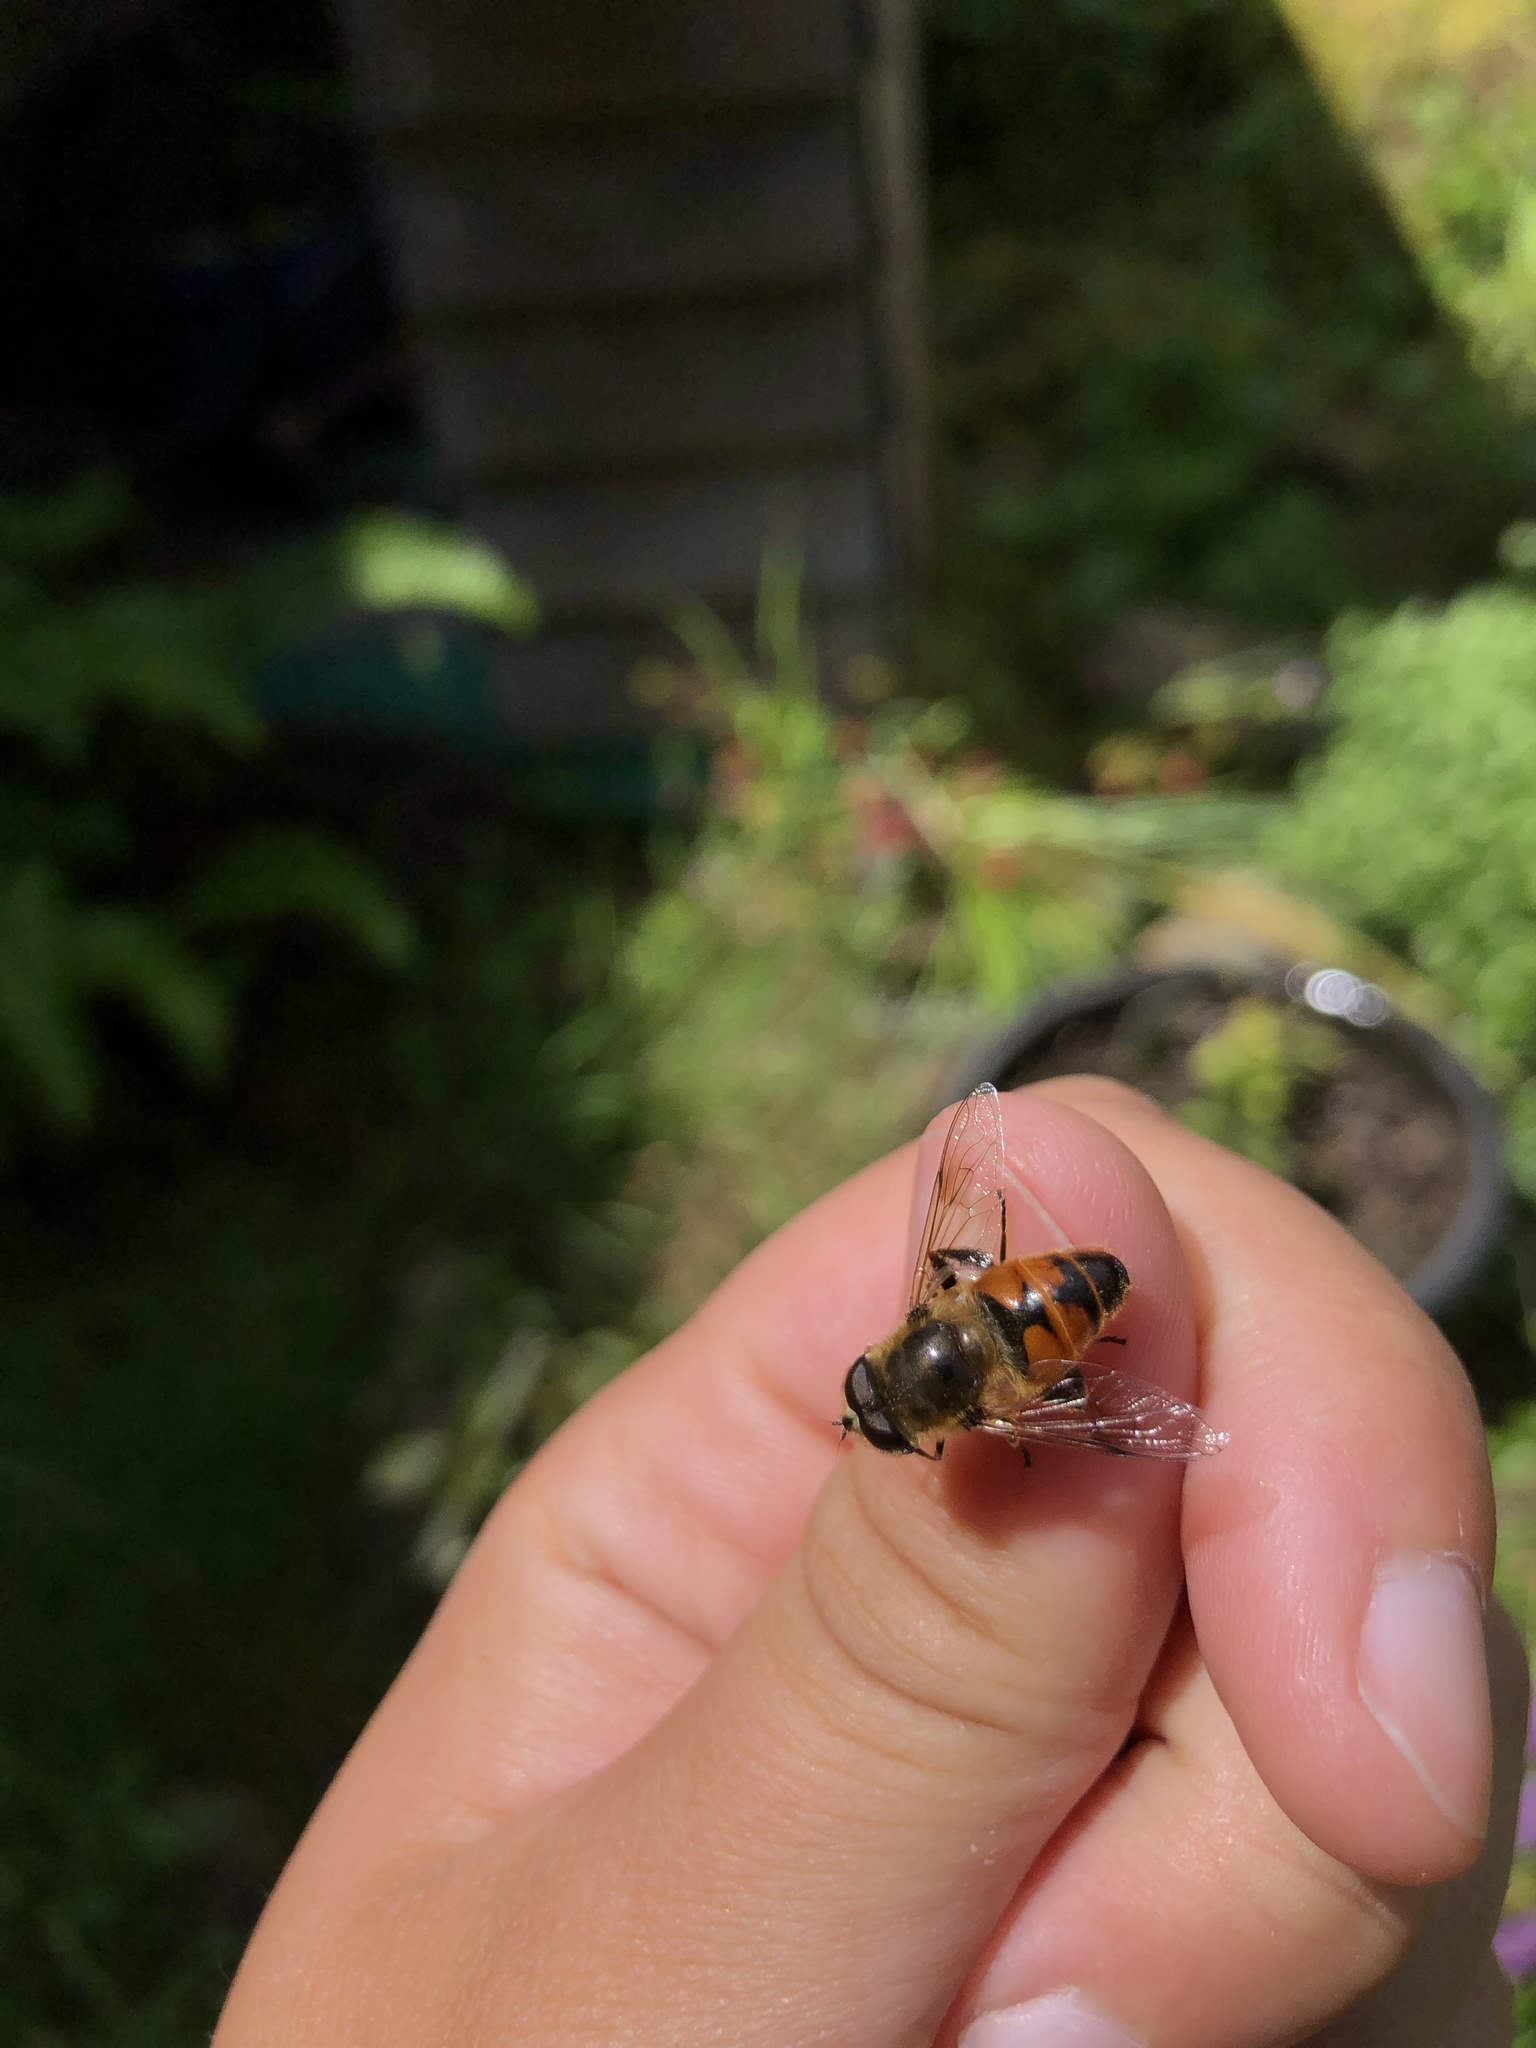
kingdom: Animalia
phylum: Arthropoda
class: Insecta
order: Diptera
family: Syrphidae
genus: Eristalis
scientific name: Eristalis tenax
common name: Drone fly
